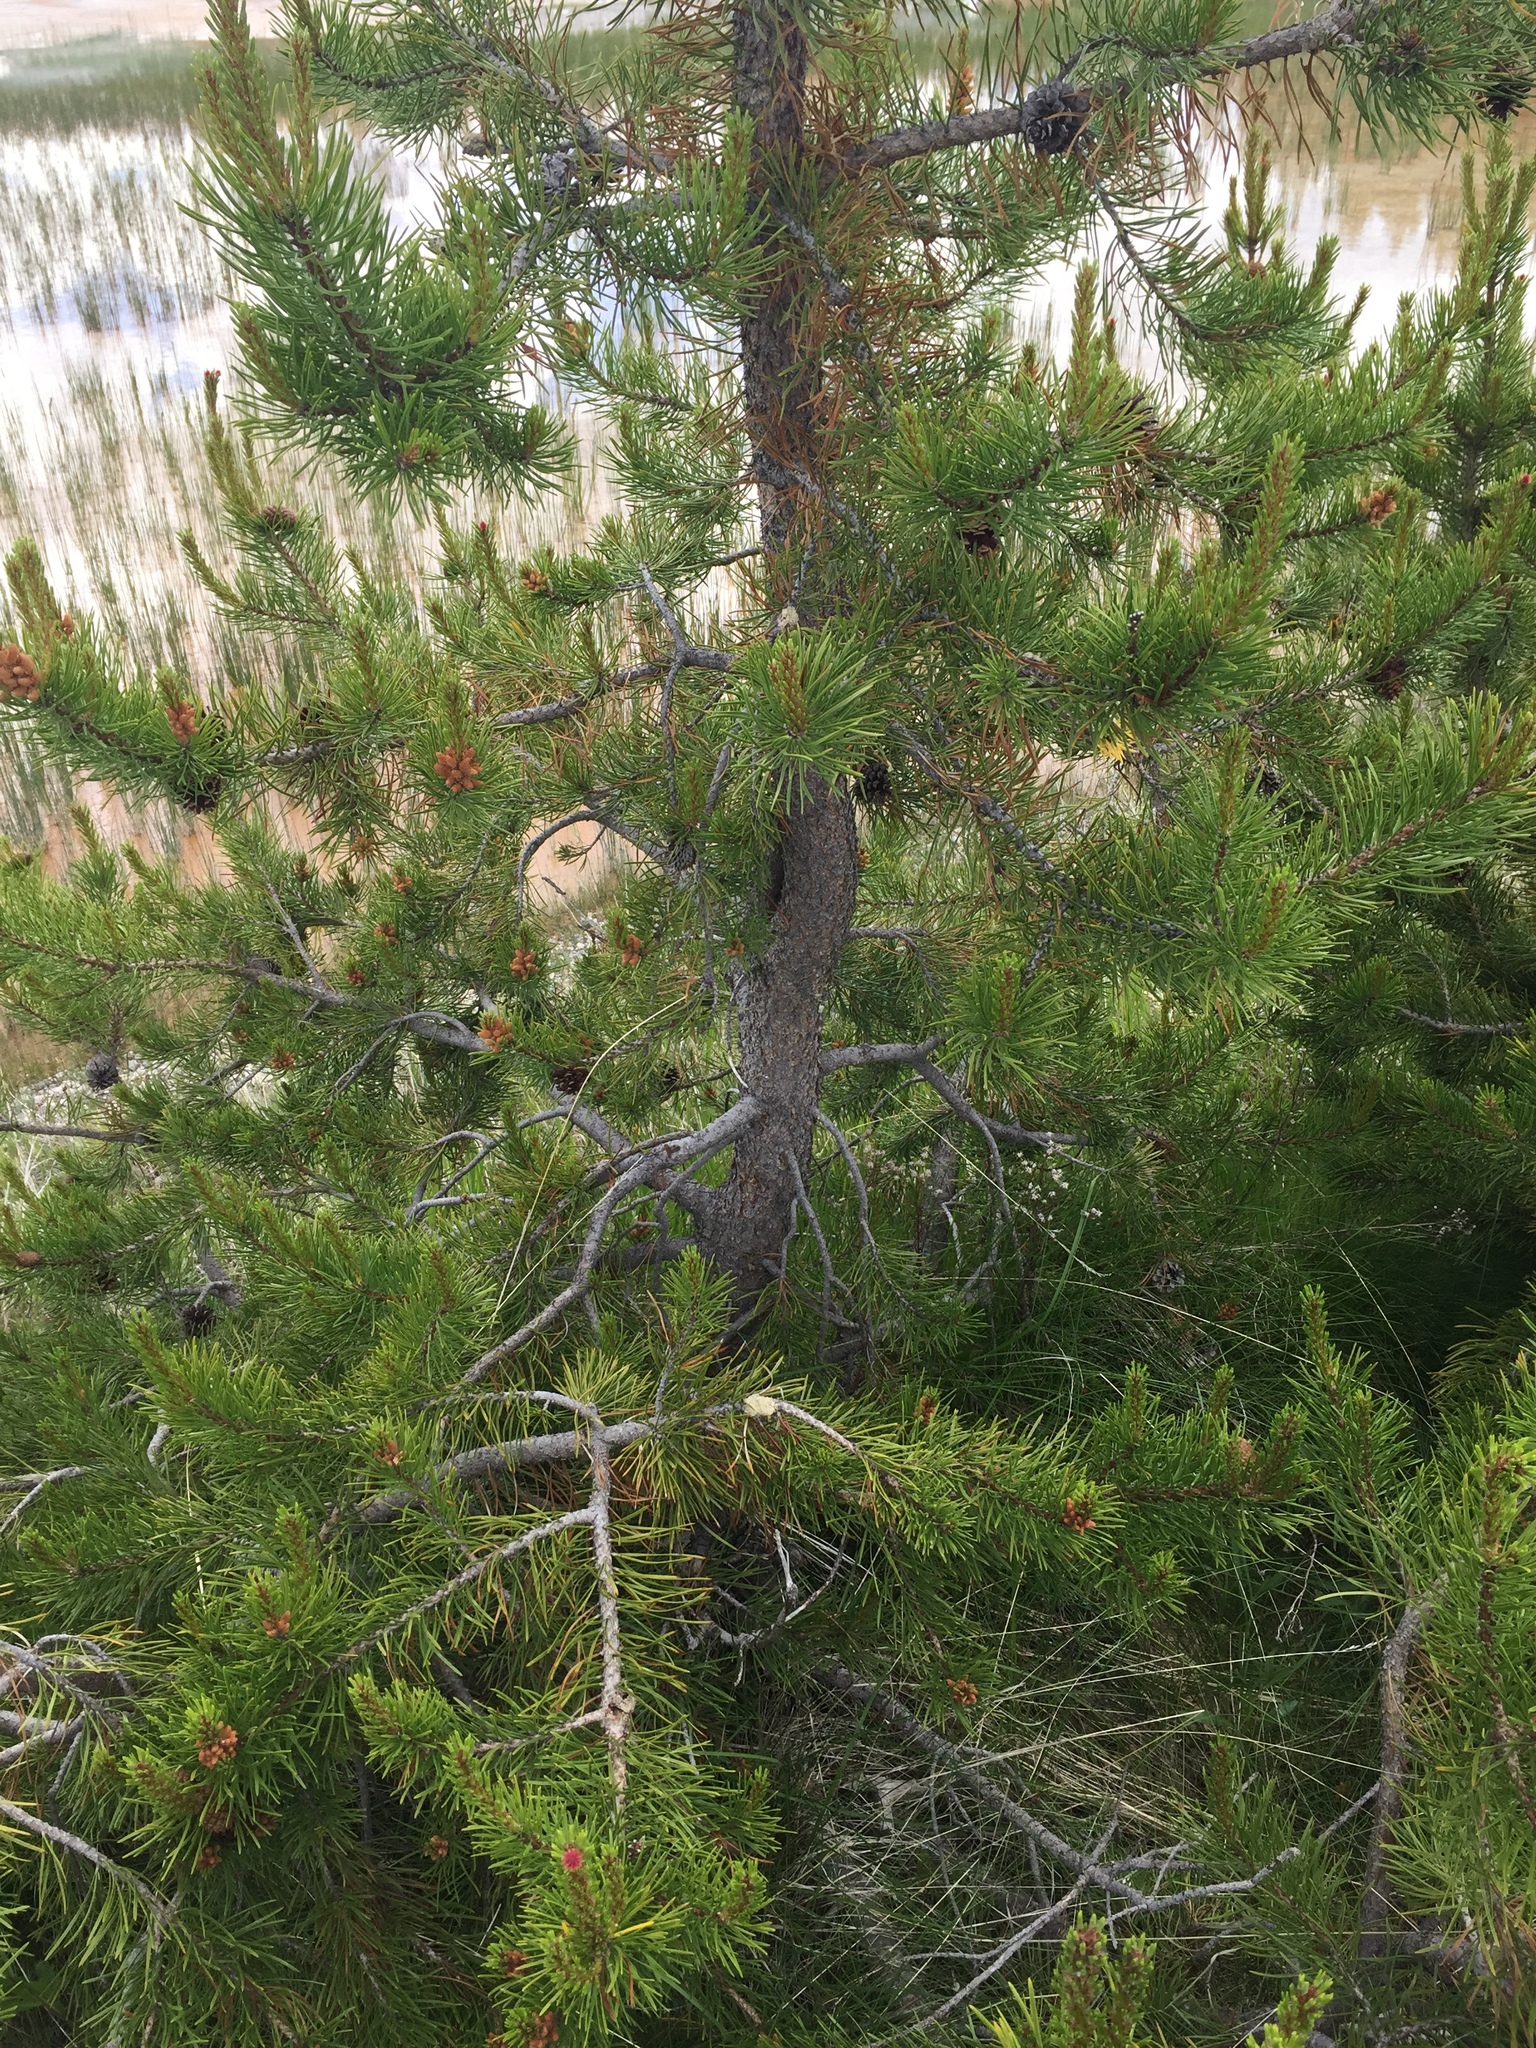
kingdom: Plantae
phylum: Tracheophyta
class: Pinopsida
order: Pinales
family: Pinaceae
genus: Pinus
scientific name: Pinus contorta
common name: Lodgepole pine
